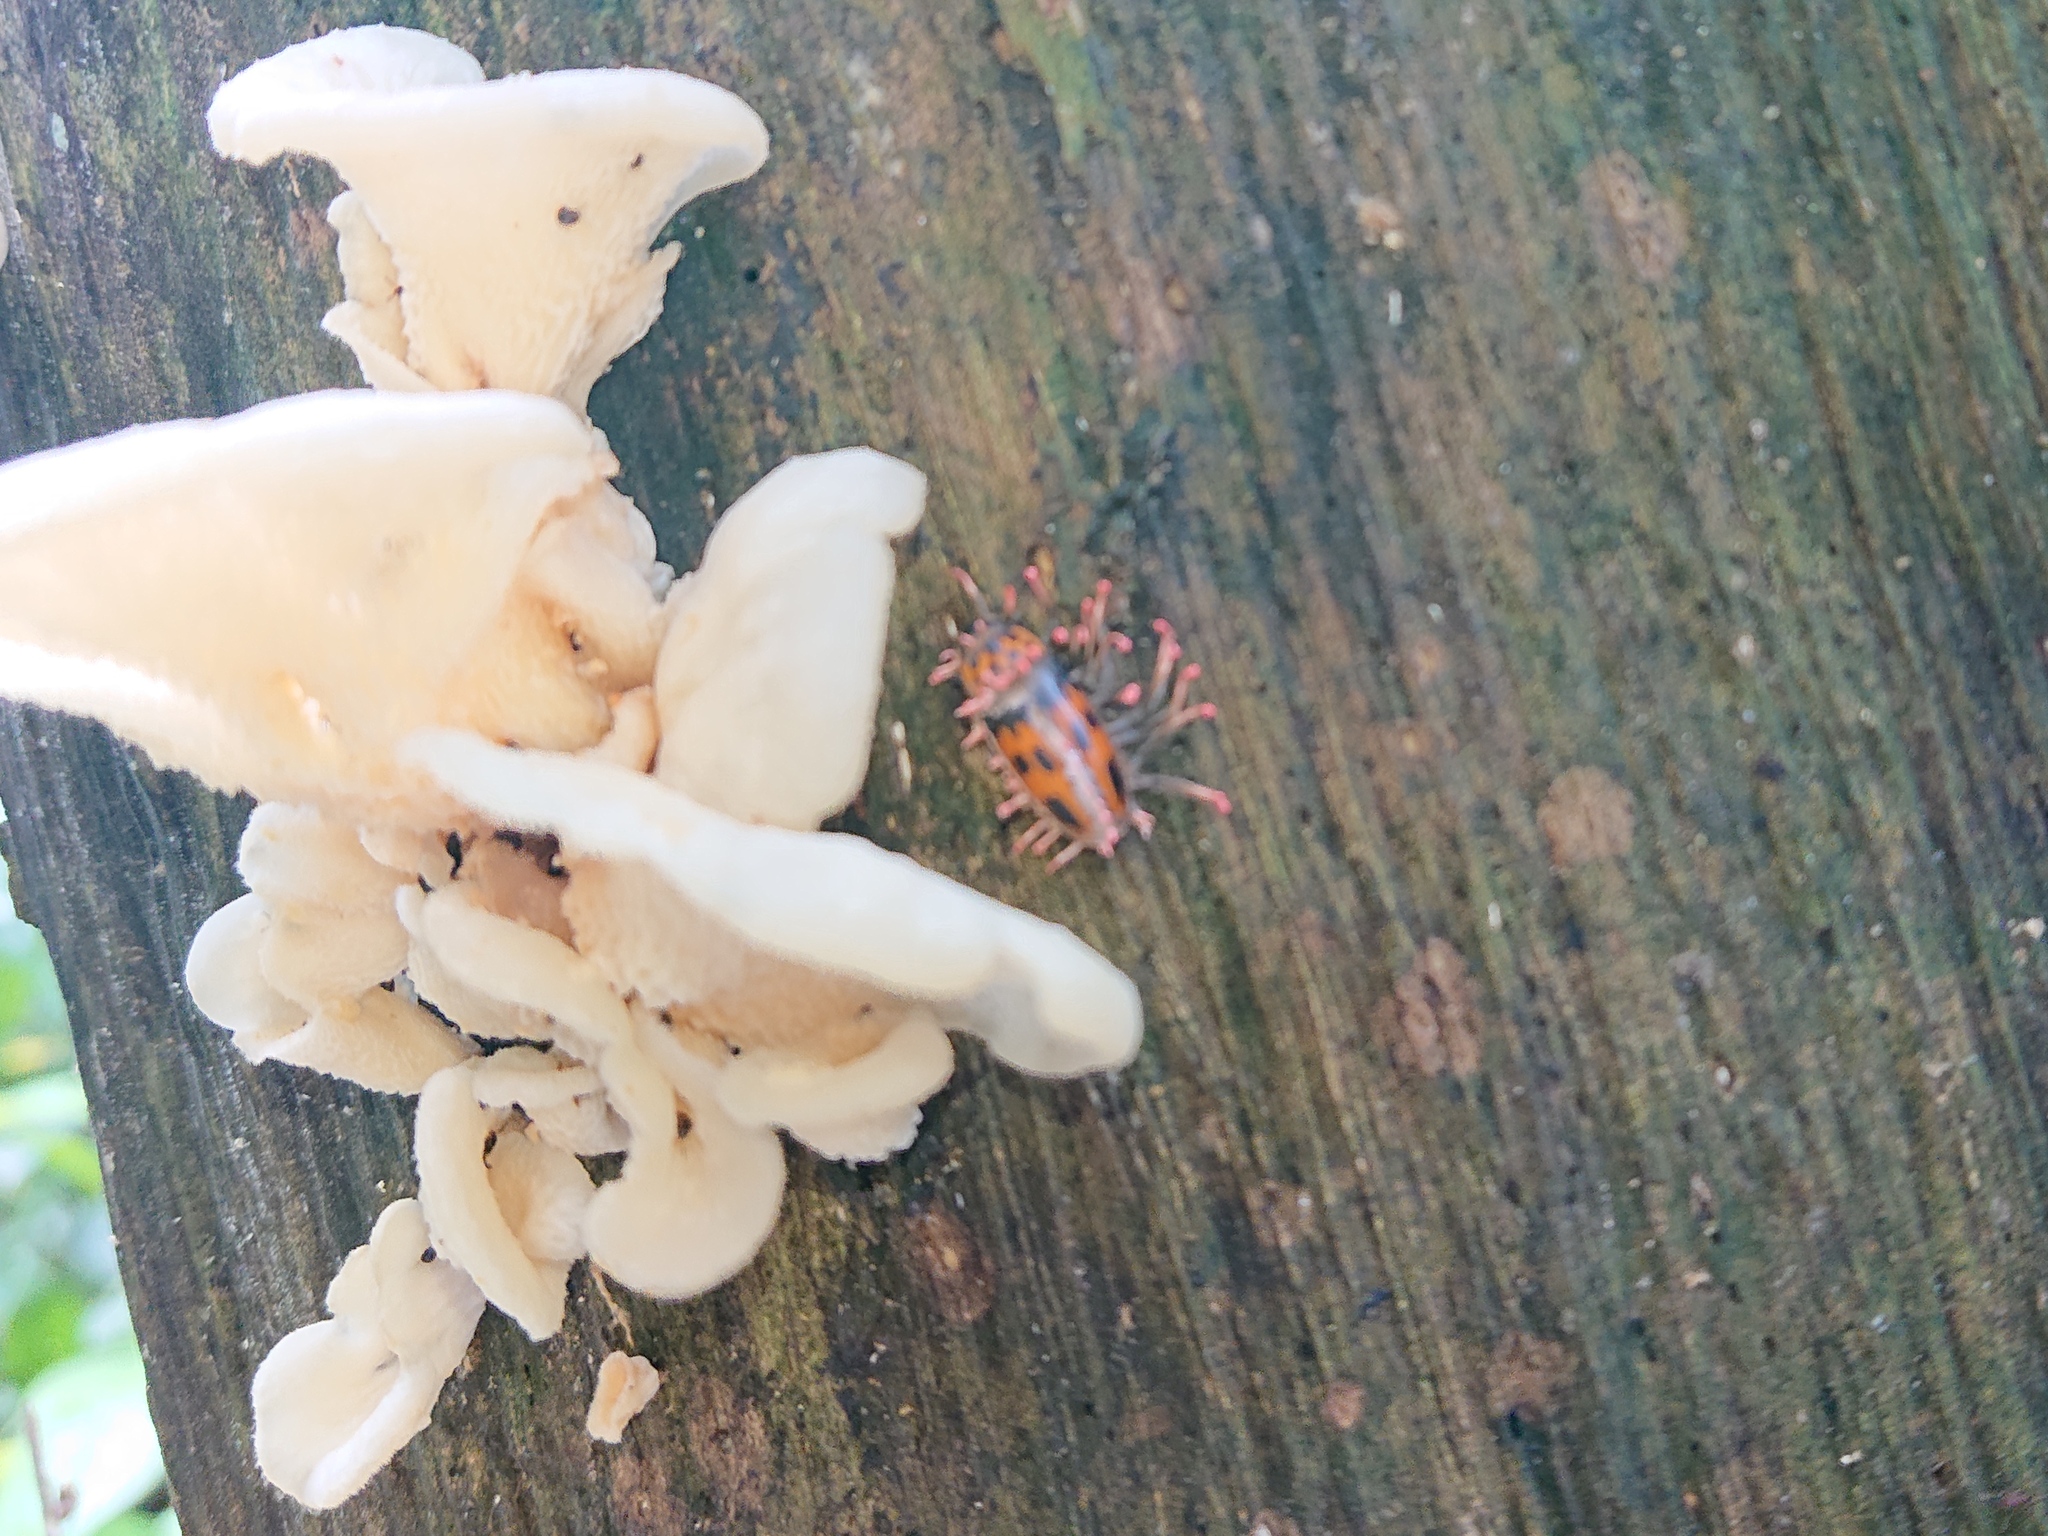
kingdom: Animalia
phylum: Arthropoda
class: Insecta
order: Coleoptera
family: Erotylidae
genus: Pselaphacus
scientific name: Pselaphacus puncticollis
